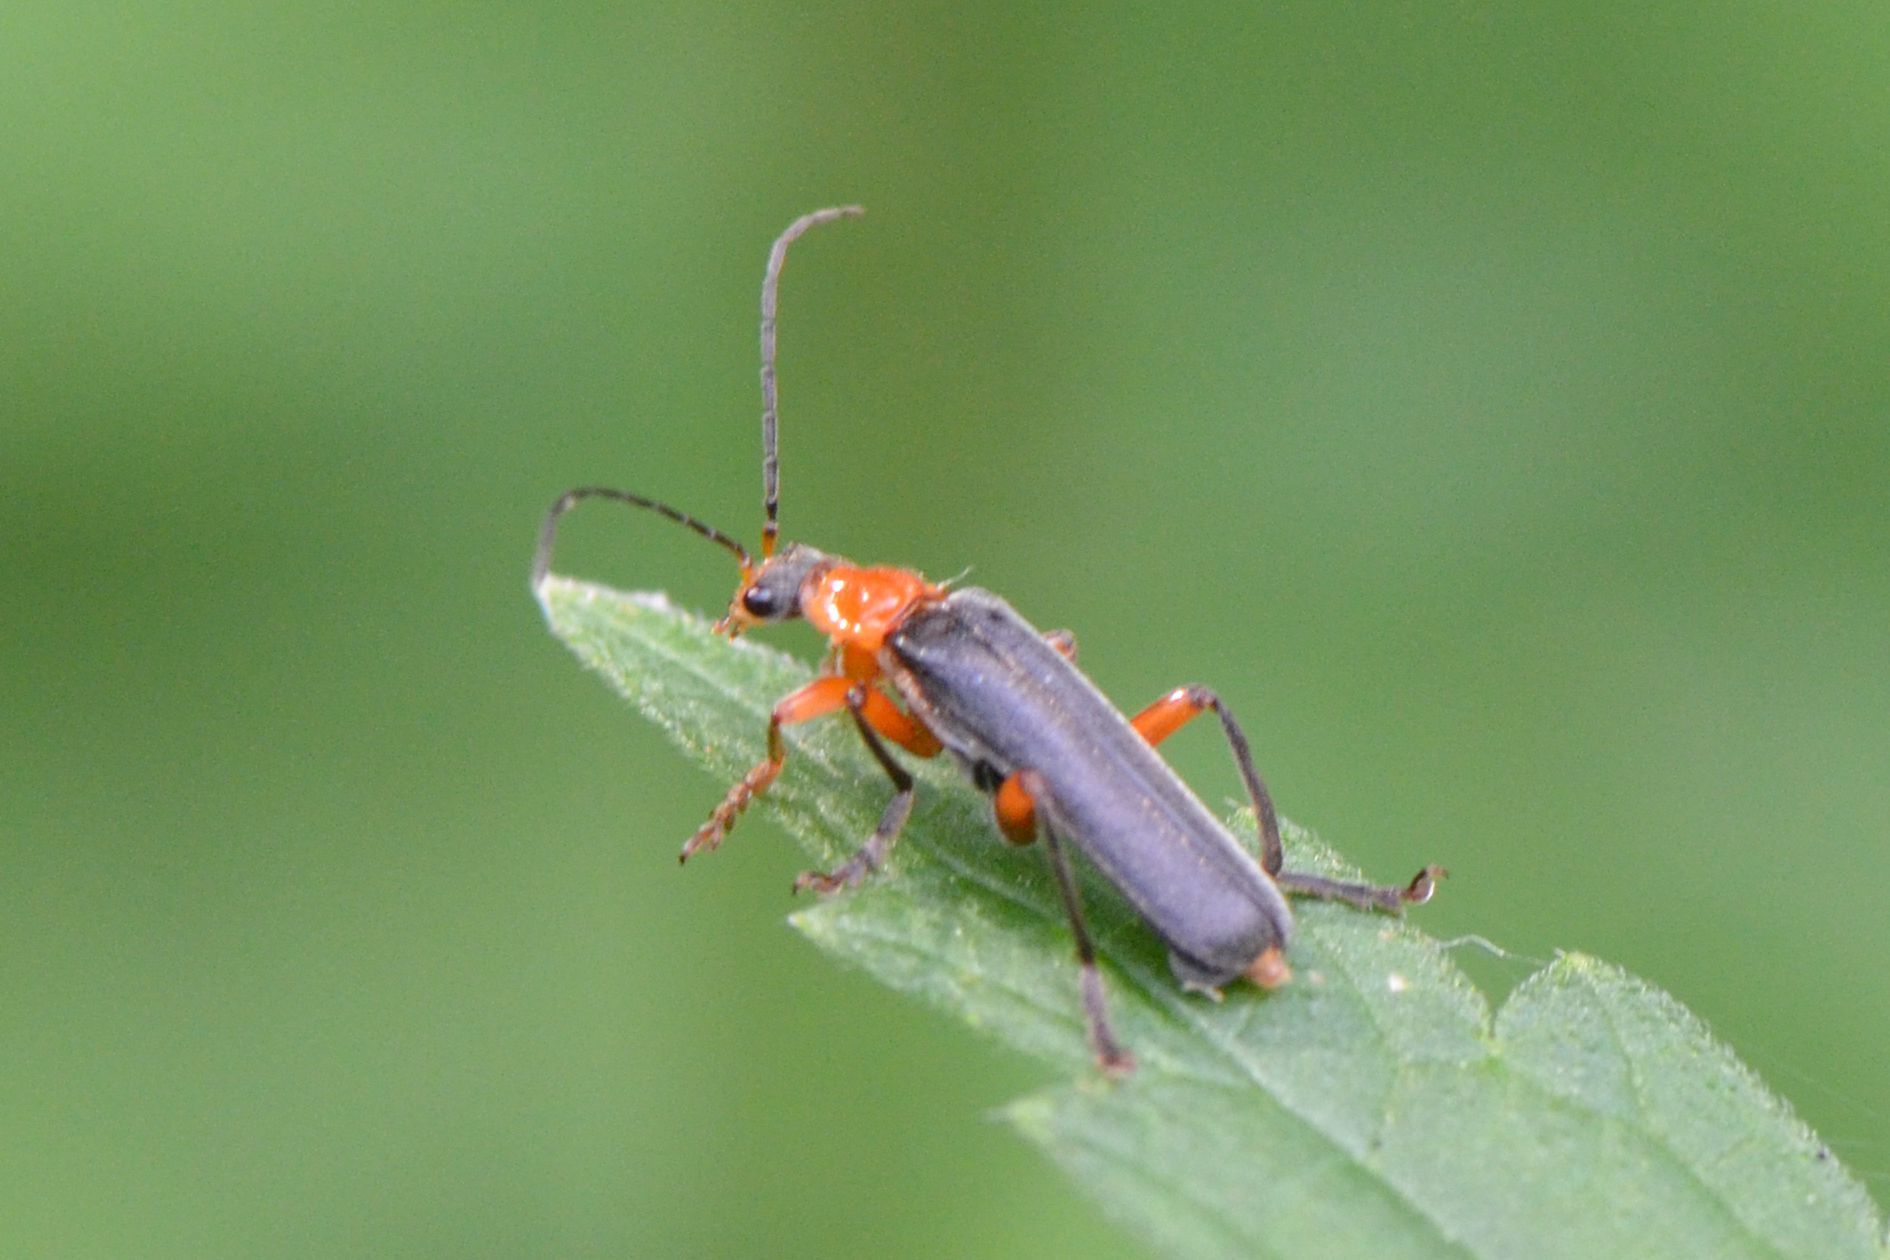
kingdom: Animalia
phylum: Arthropoda
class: Insecta
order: Coleoptera
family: Cantharidae
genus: Cantharis
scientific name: Cantharis pellucida
